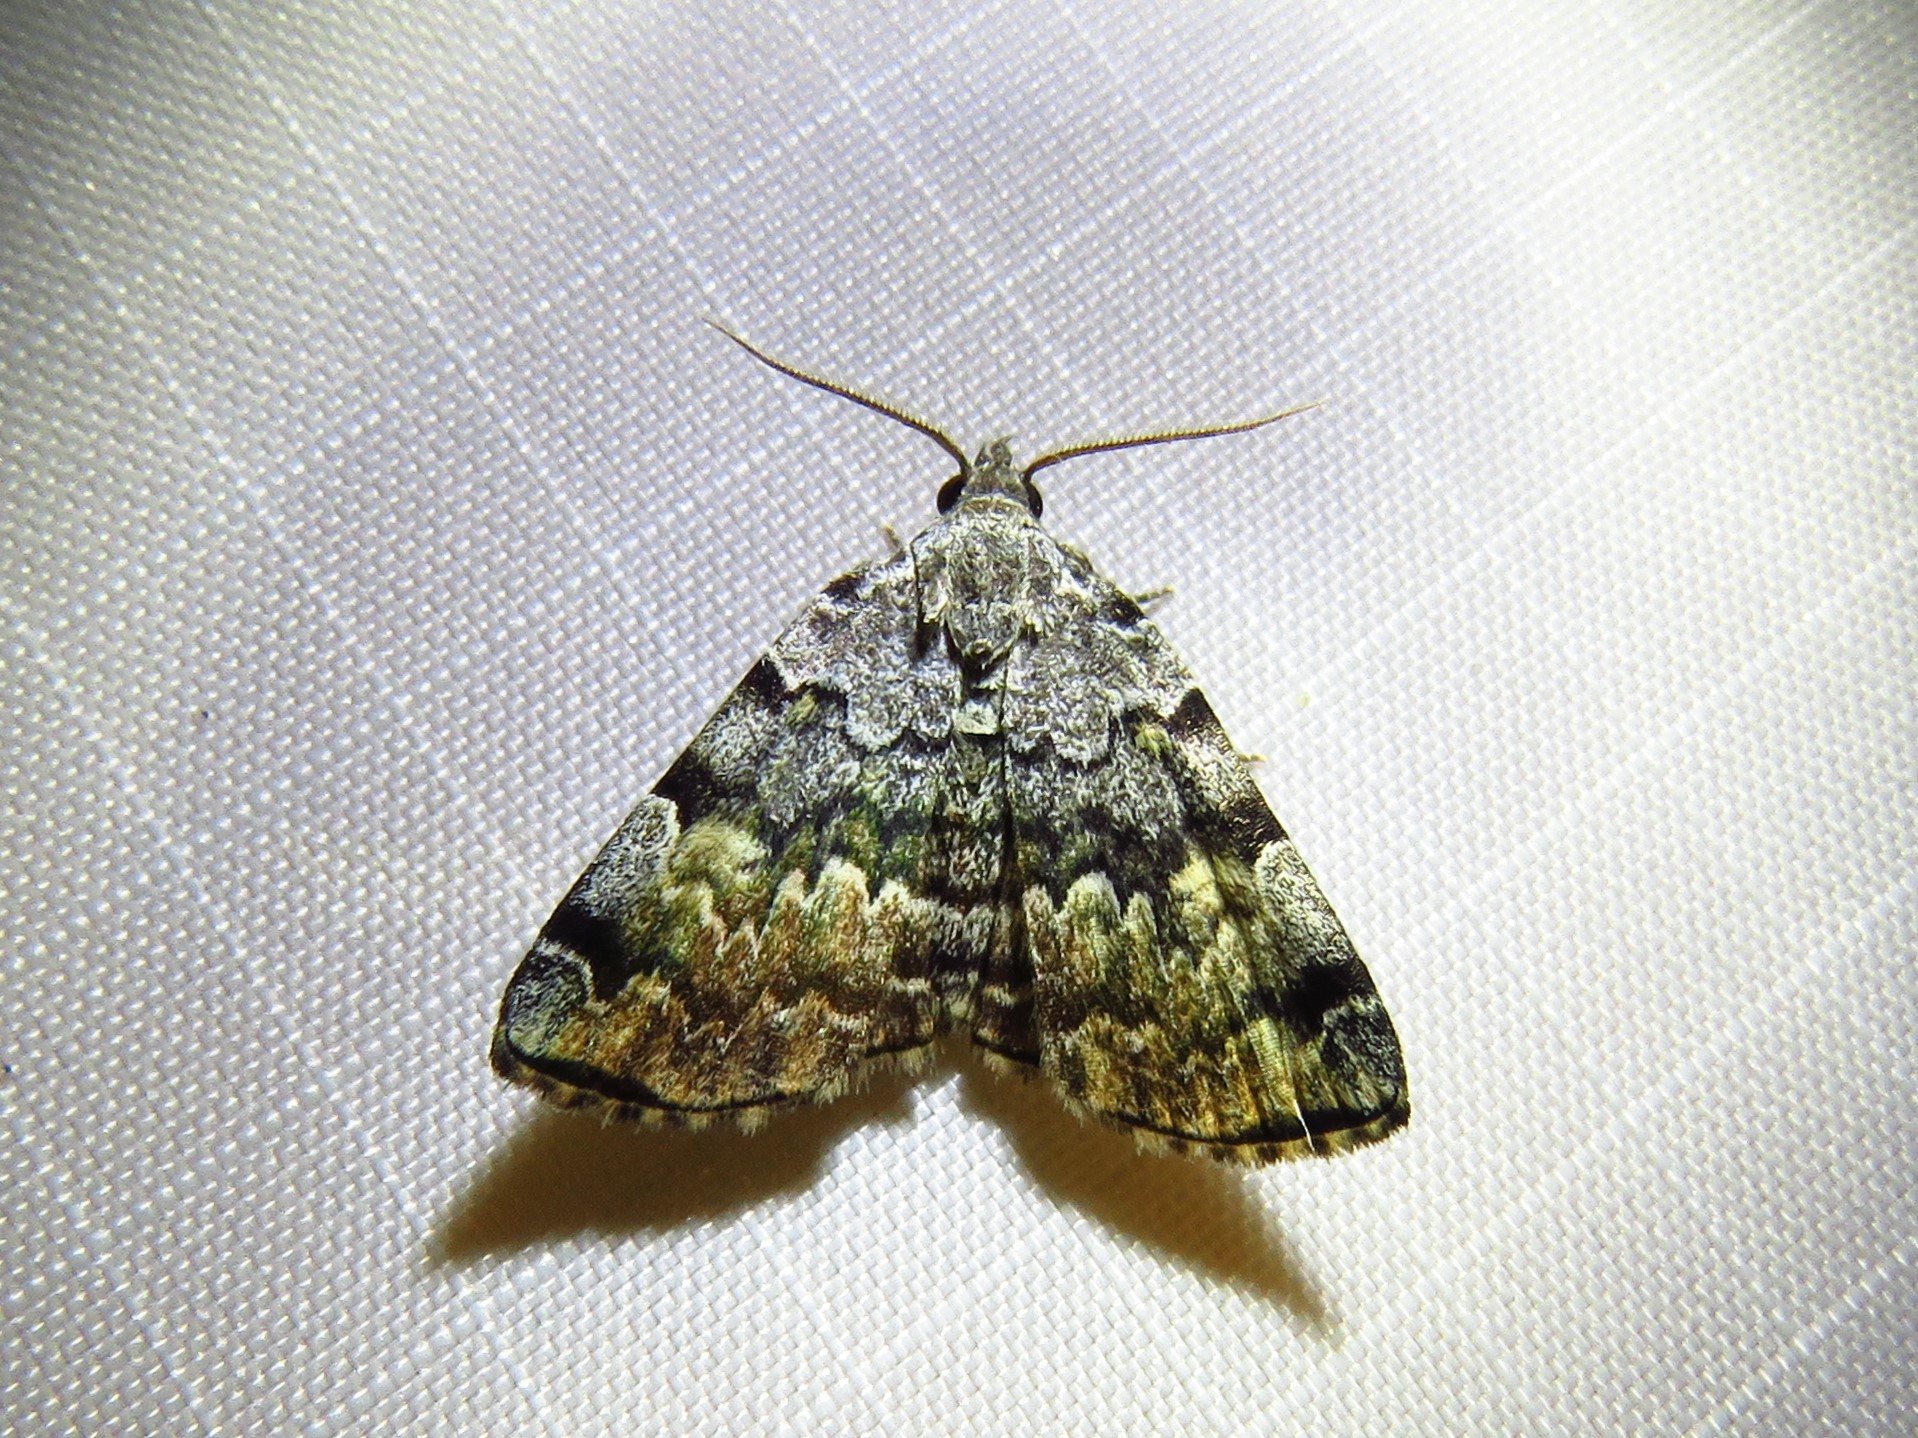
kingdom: Animalia
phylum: Arthropoda
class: Insecta
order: Lepidoptera
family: Erebidae
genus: Idia
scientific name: Idia americalis
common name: American idia moth
